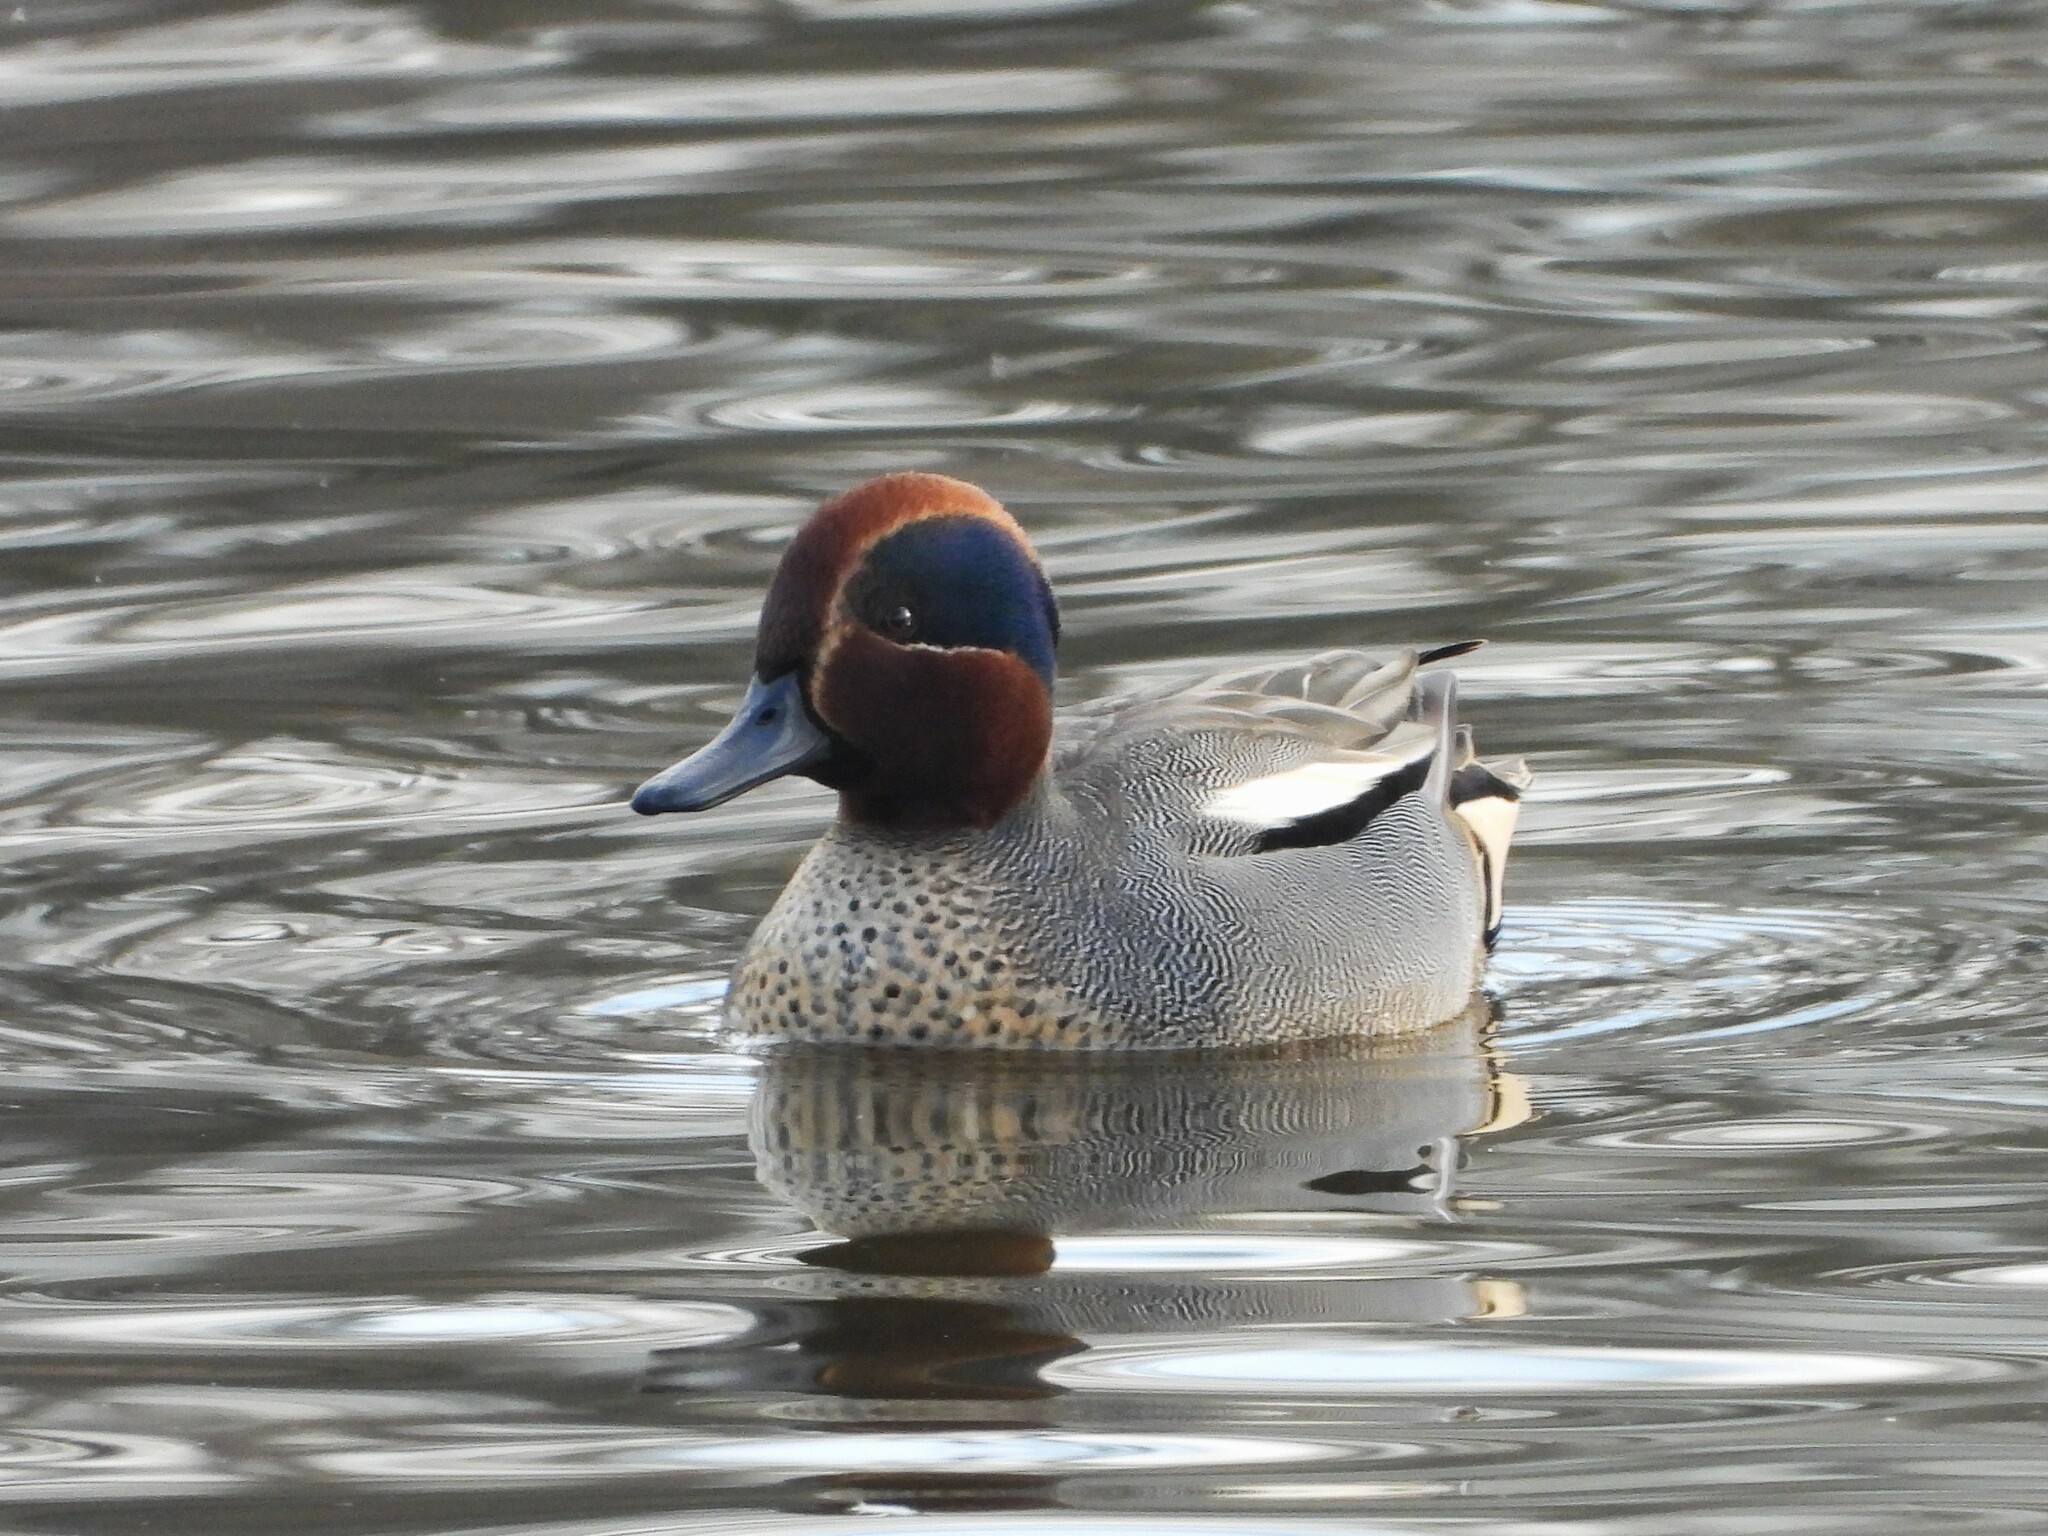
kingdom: Animalia
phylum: Chordata
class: Aves
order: Anseriformes
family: Anatidae
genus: Anas
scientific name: Anas crecca
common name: Eurasian teal
